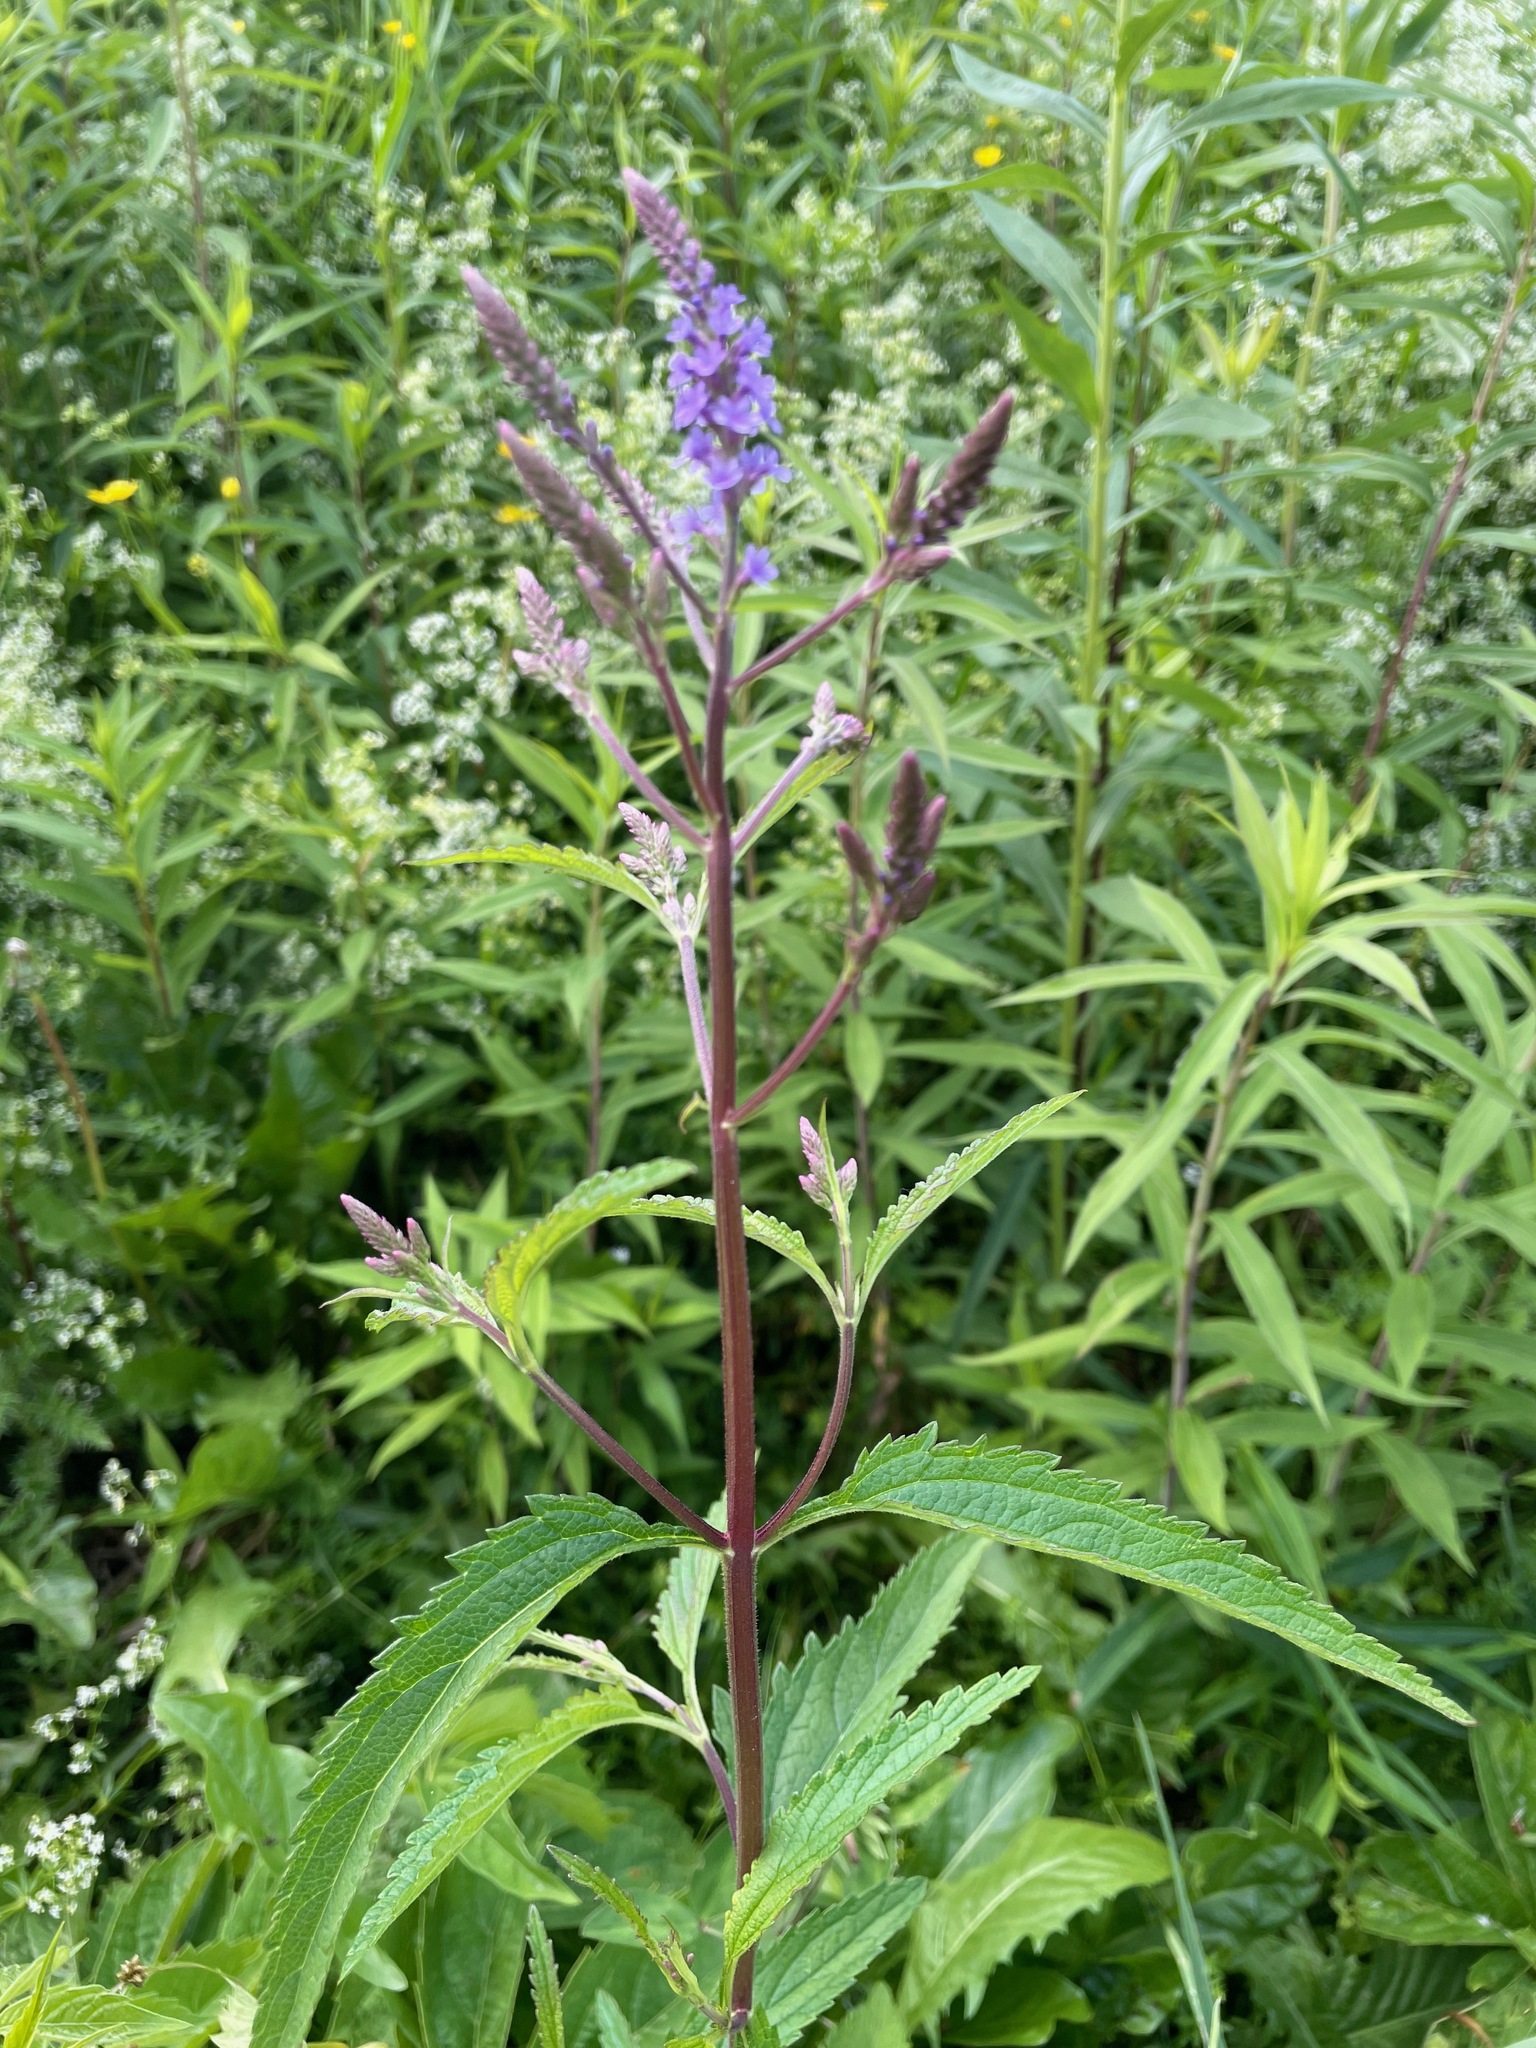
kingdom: Plantae
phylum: Tracheophyta
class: Magnoliopsida
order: Lamiales
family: Verbenaceae
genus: Verbena
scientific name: Verbena hastata
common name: American blue vervain
